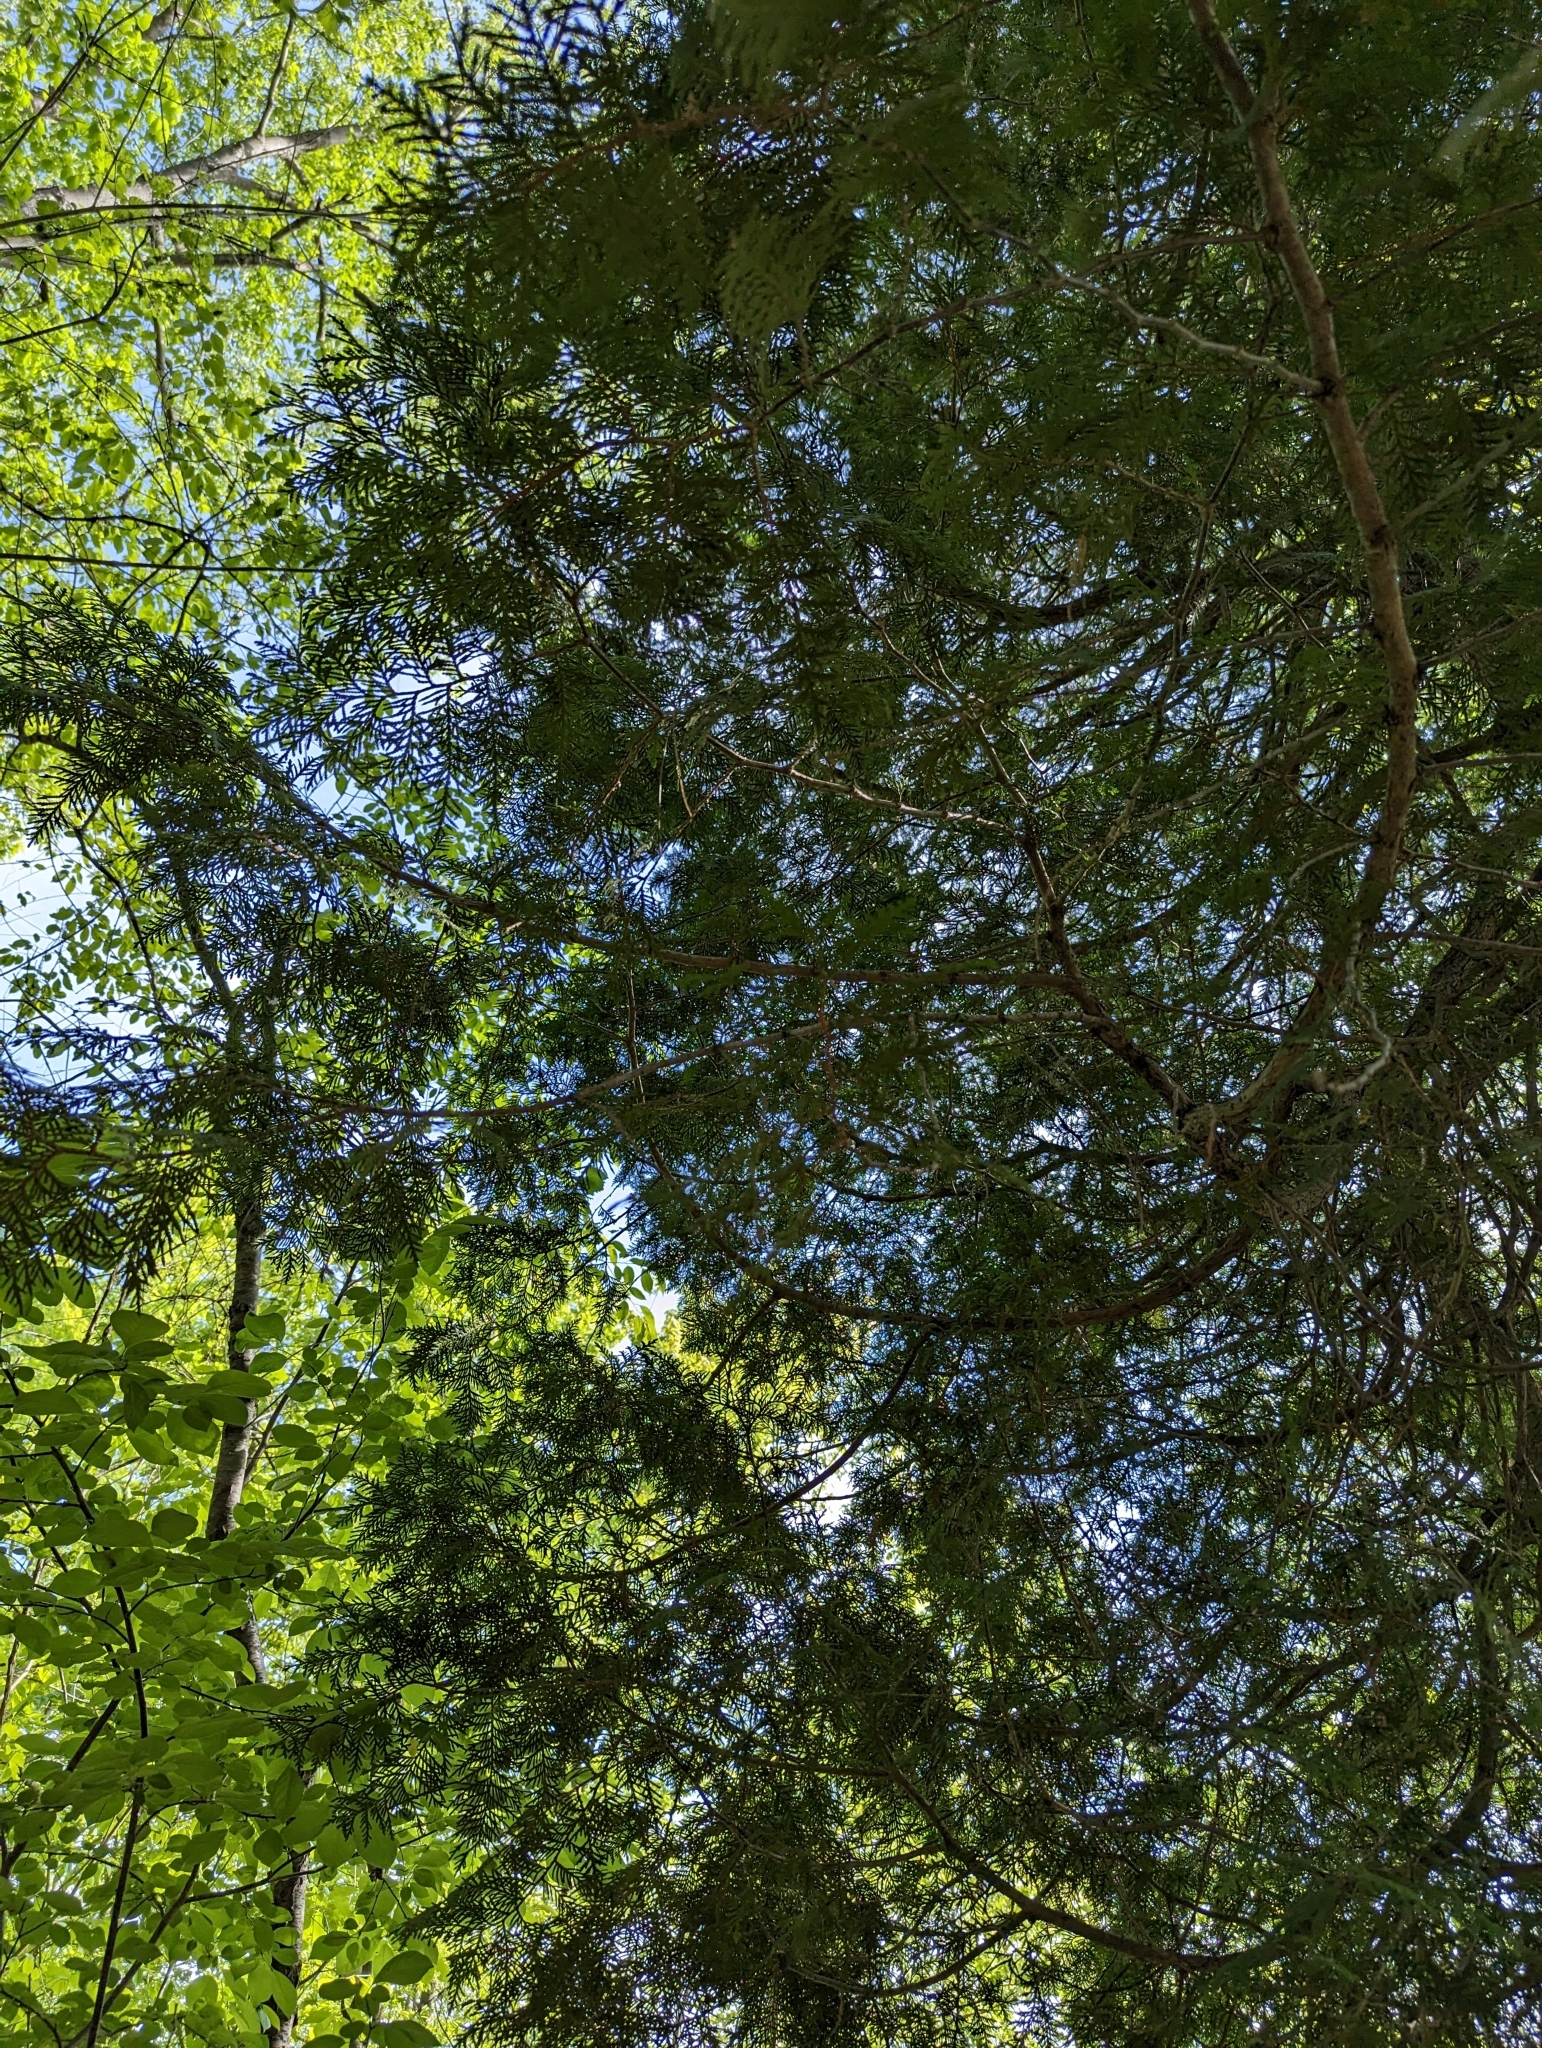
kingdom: Plantae
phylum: Tracheophyta
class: Pinopsida
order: Pinales
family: Cupressaceae
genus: Thuja
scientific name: Thuja occidentalis
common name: Northern white-cedar
